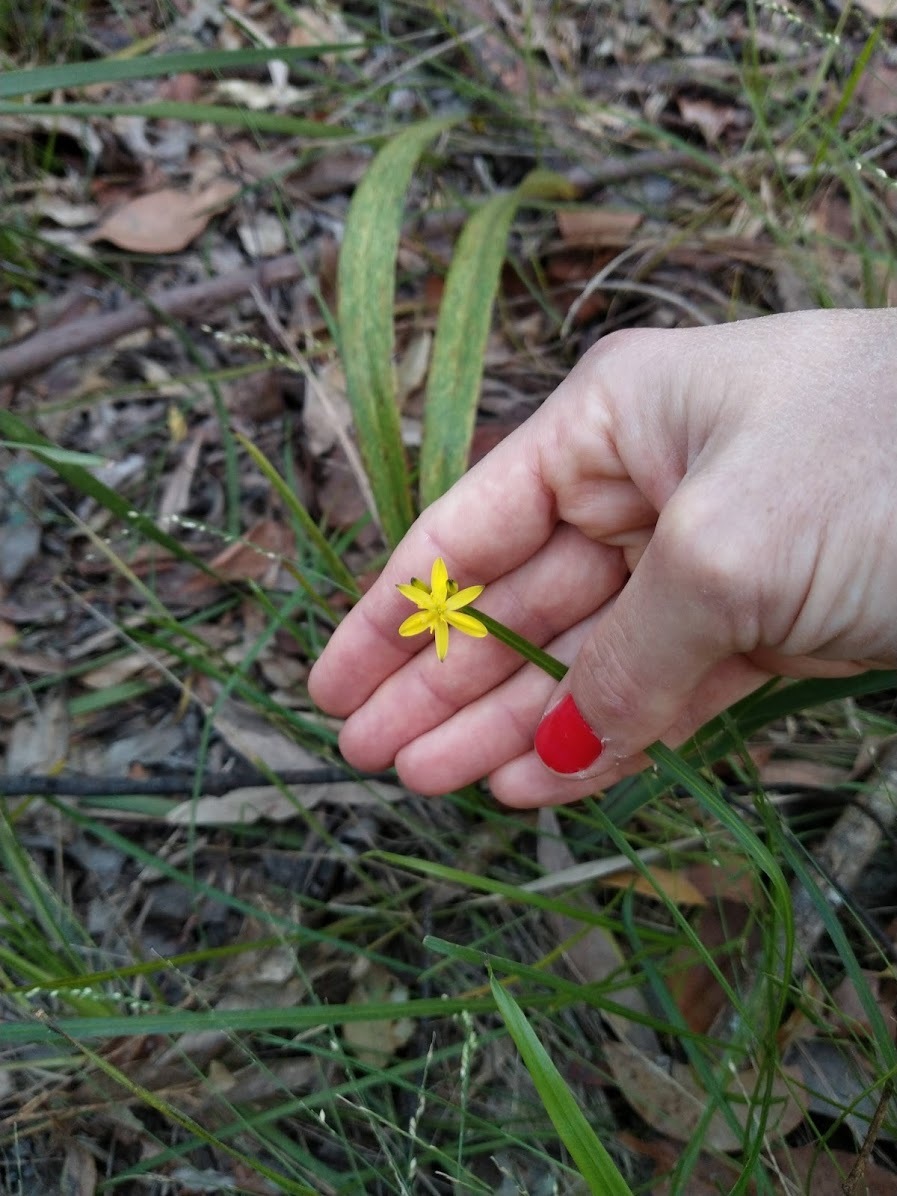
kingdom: Plantae
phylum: Tracheophyta
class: Liliopsida
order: Asparagales
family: Asphodelaceae
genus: Tricoryne
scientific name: Tricoryne anceps
